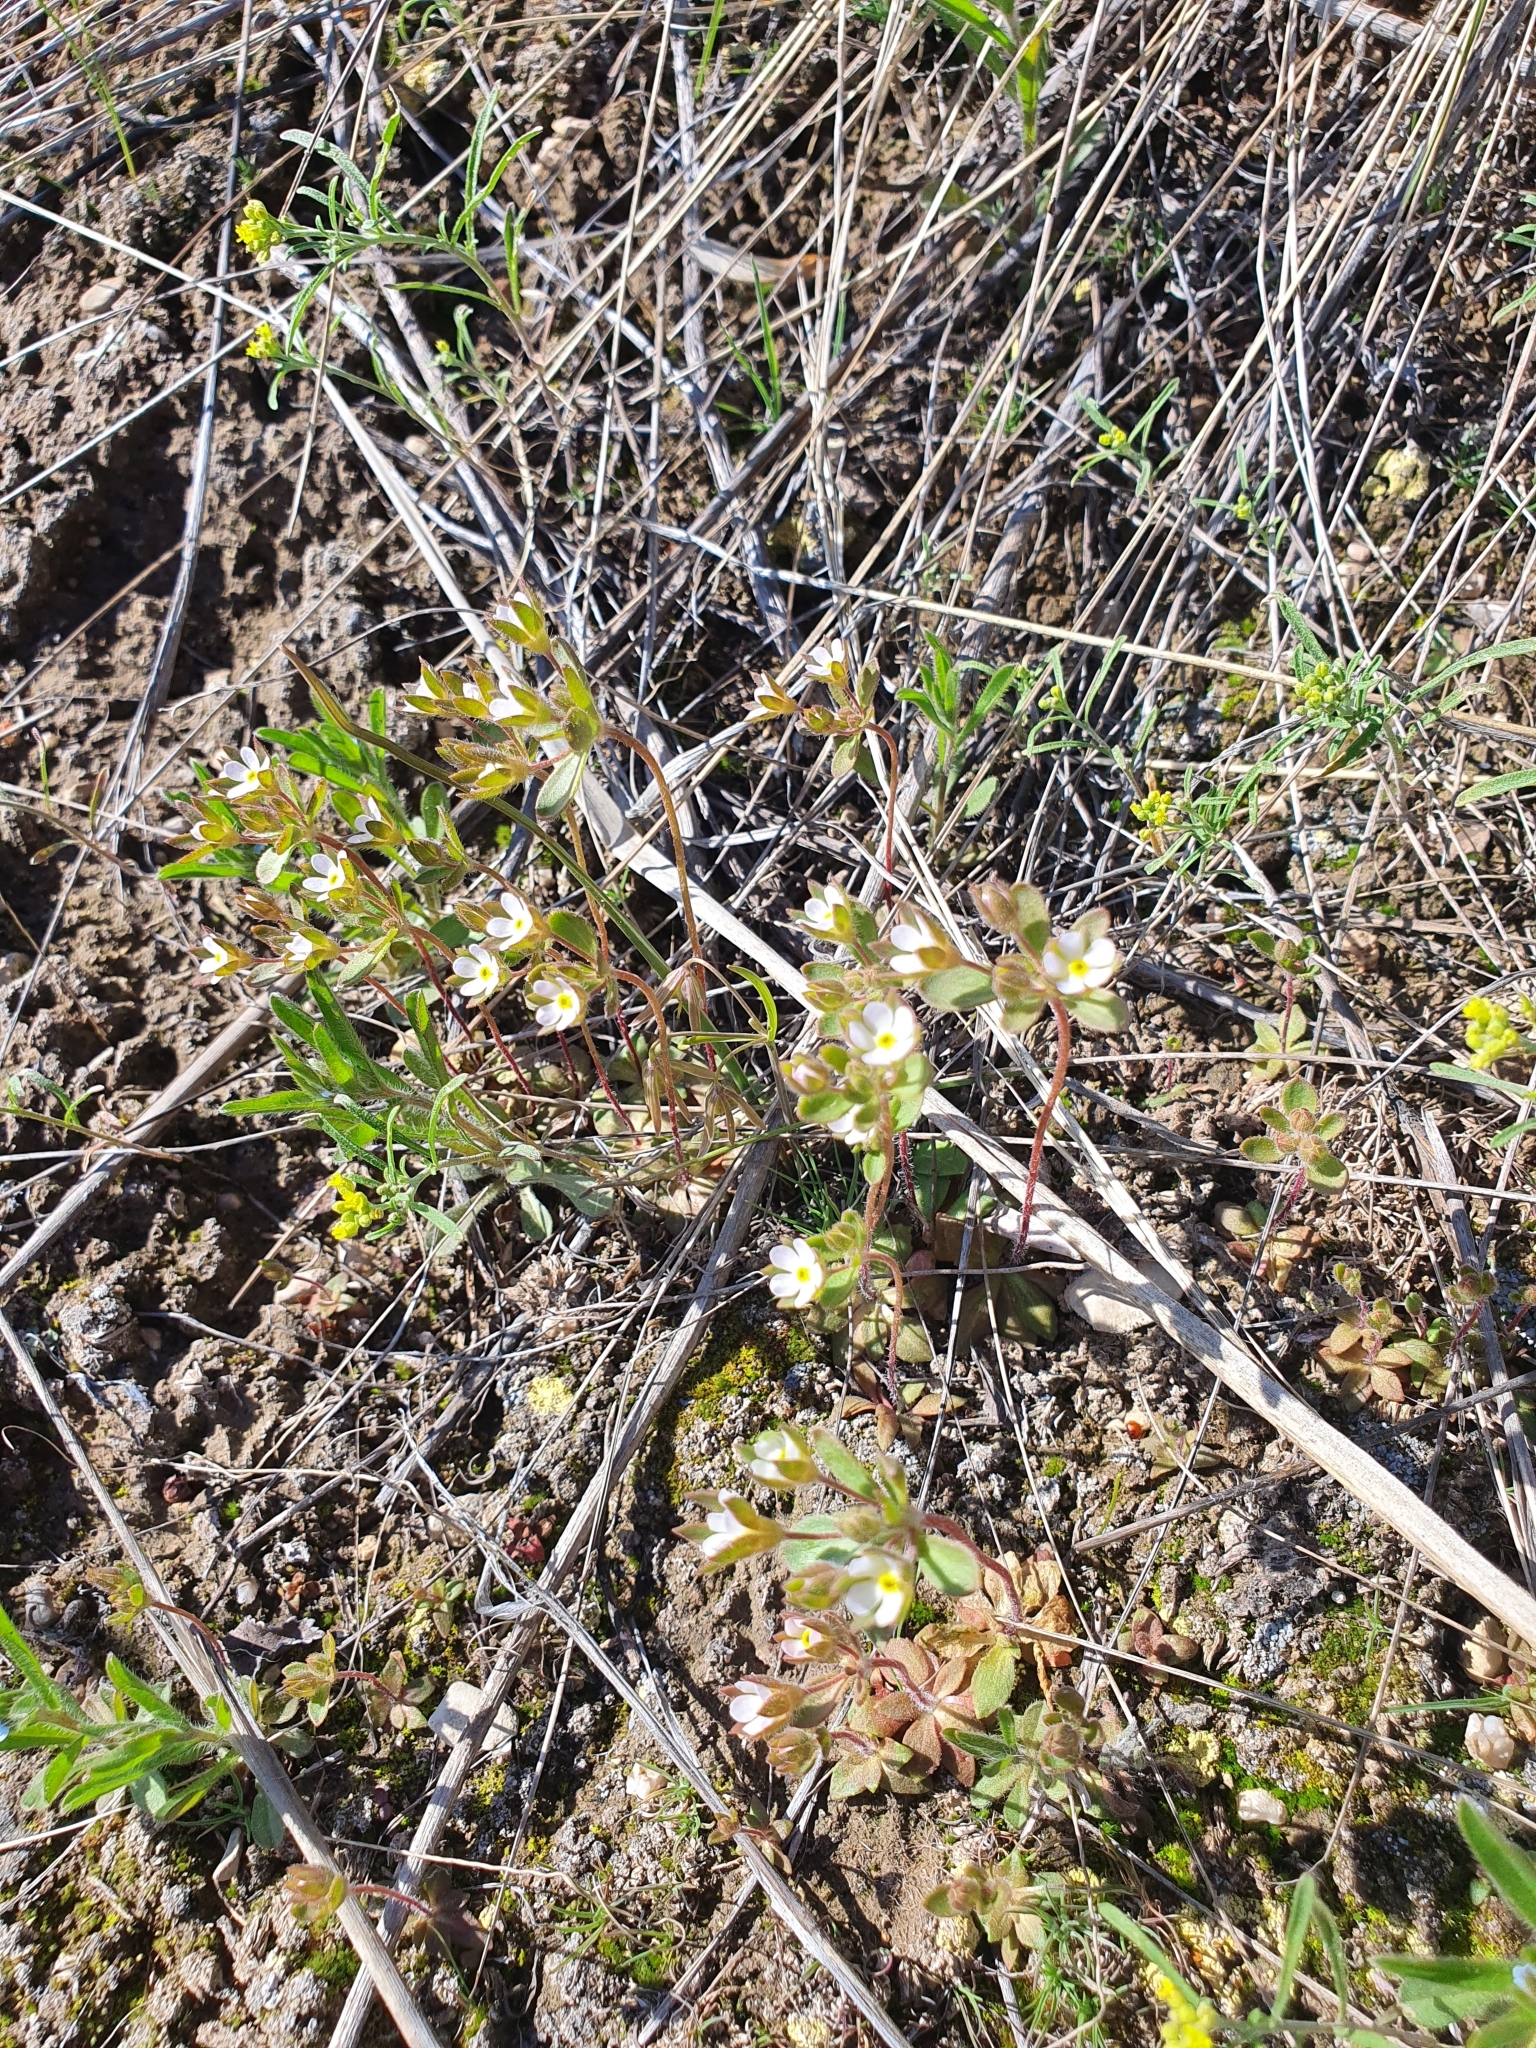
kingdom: Plantae
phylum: Tracheophyta
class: Magnoliopsida
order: Ericales
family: Primulaceae
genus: Androsace
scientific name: Androsace maxima
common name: Annual androsace
